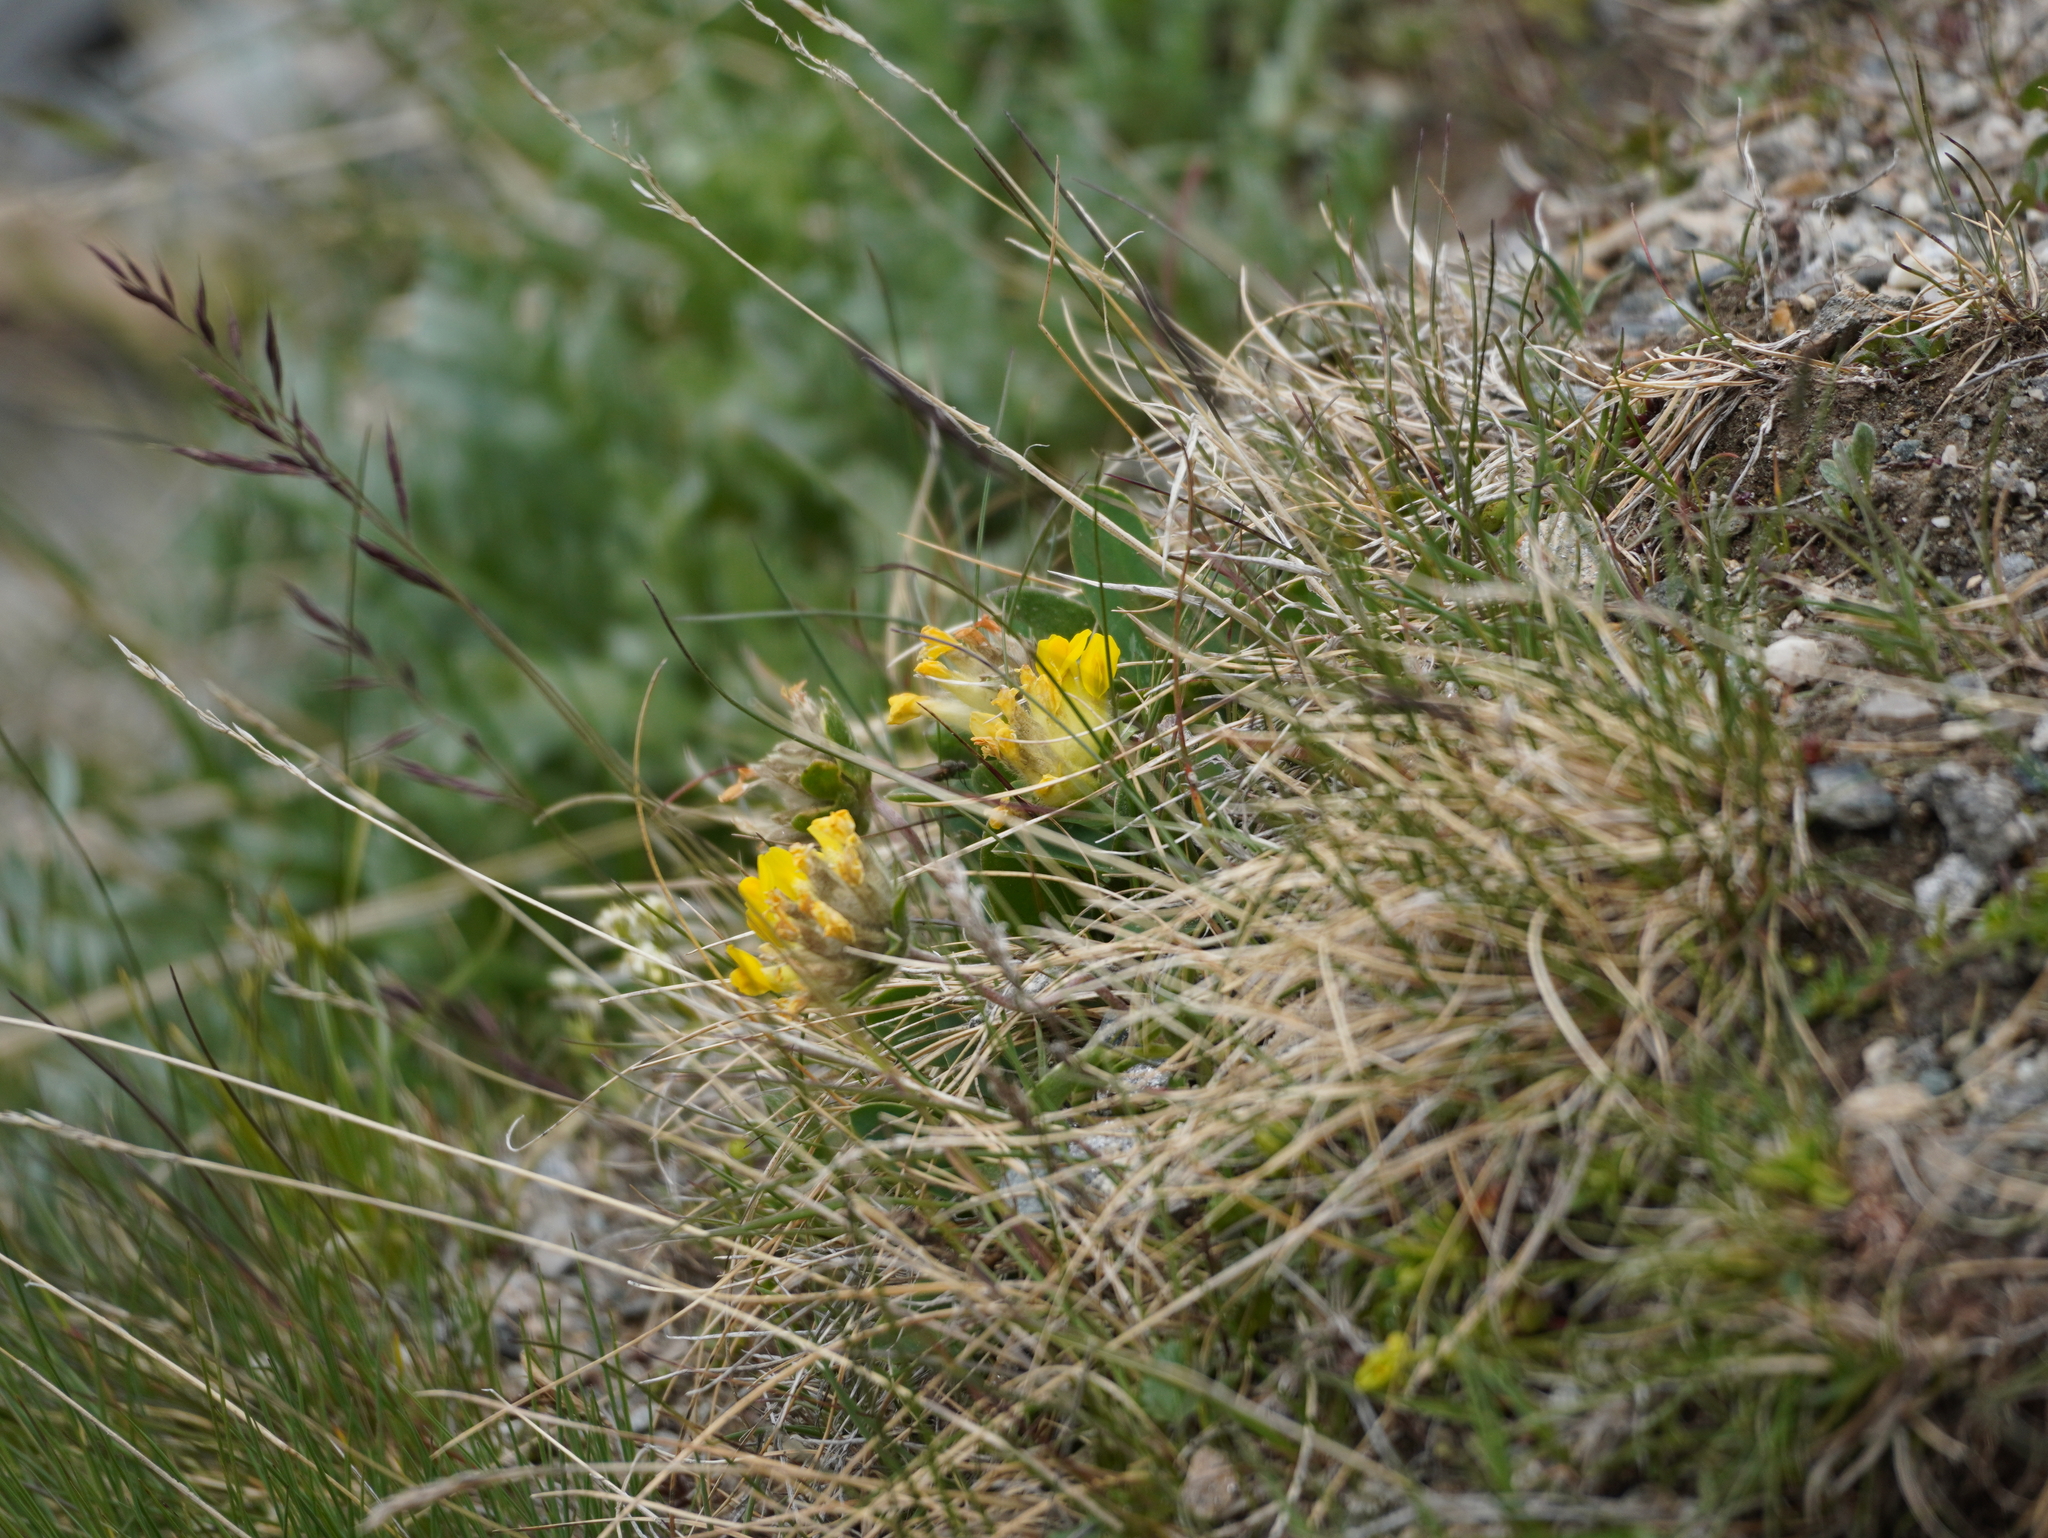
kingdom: Plantae
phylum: Tracheophyta
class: Magnoliopsida
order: Fabales
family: Fabaceae
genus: Anthyllis
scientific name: Anthyllis vulneraria
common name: Kidney vetch
